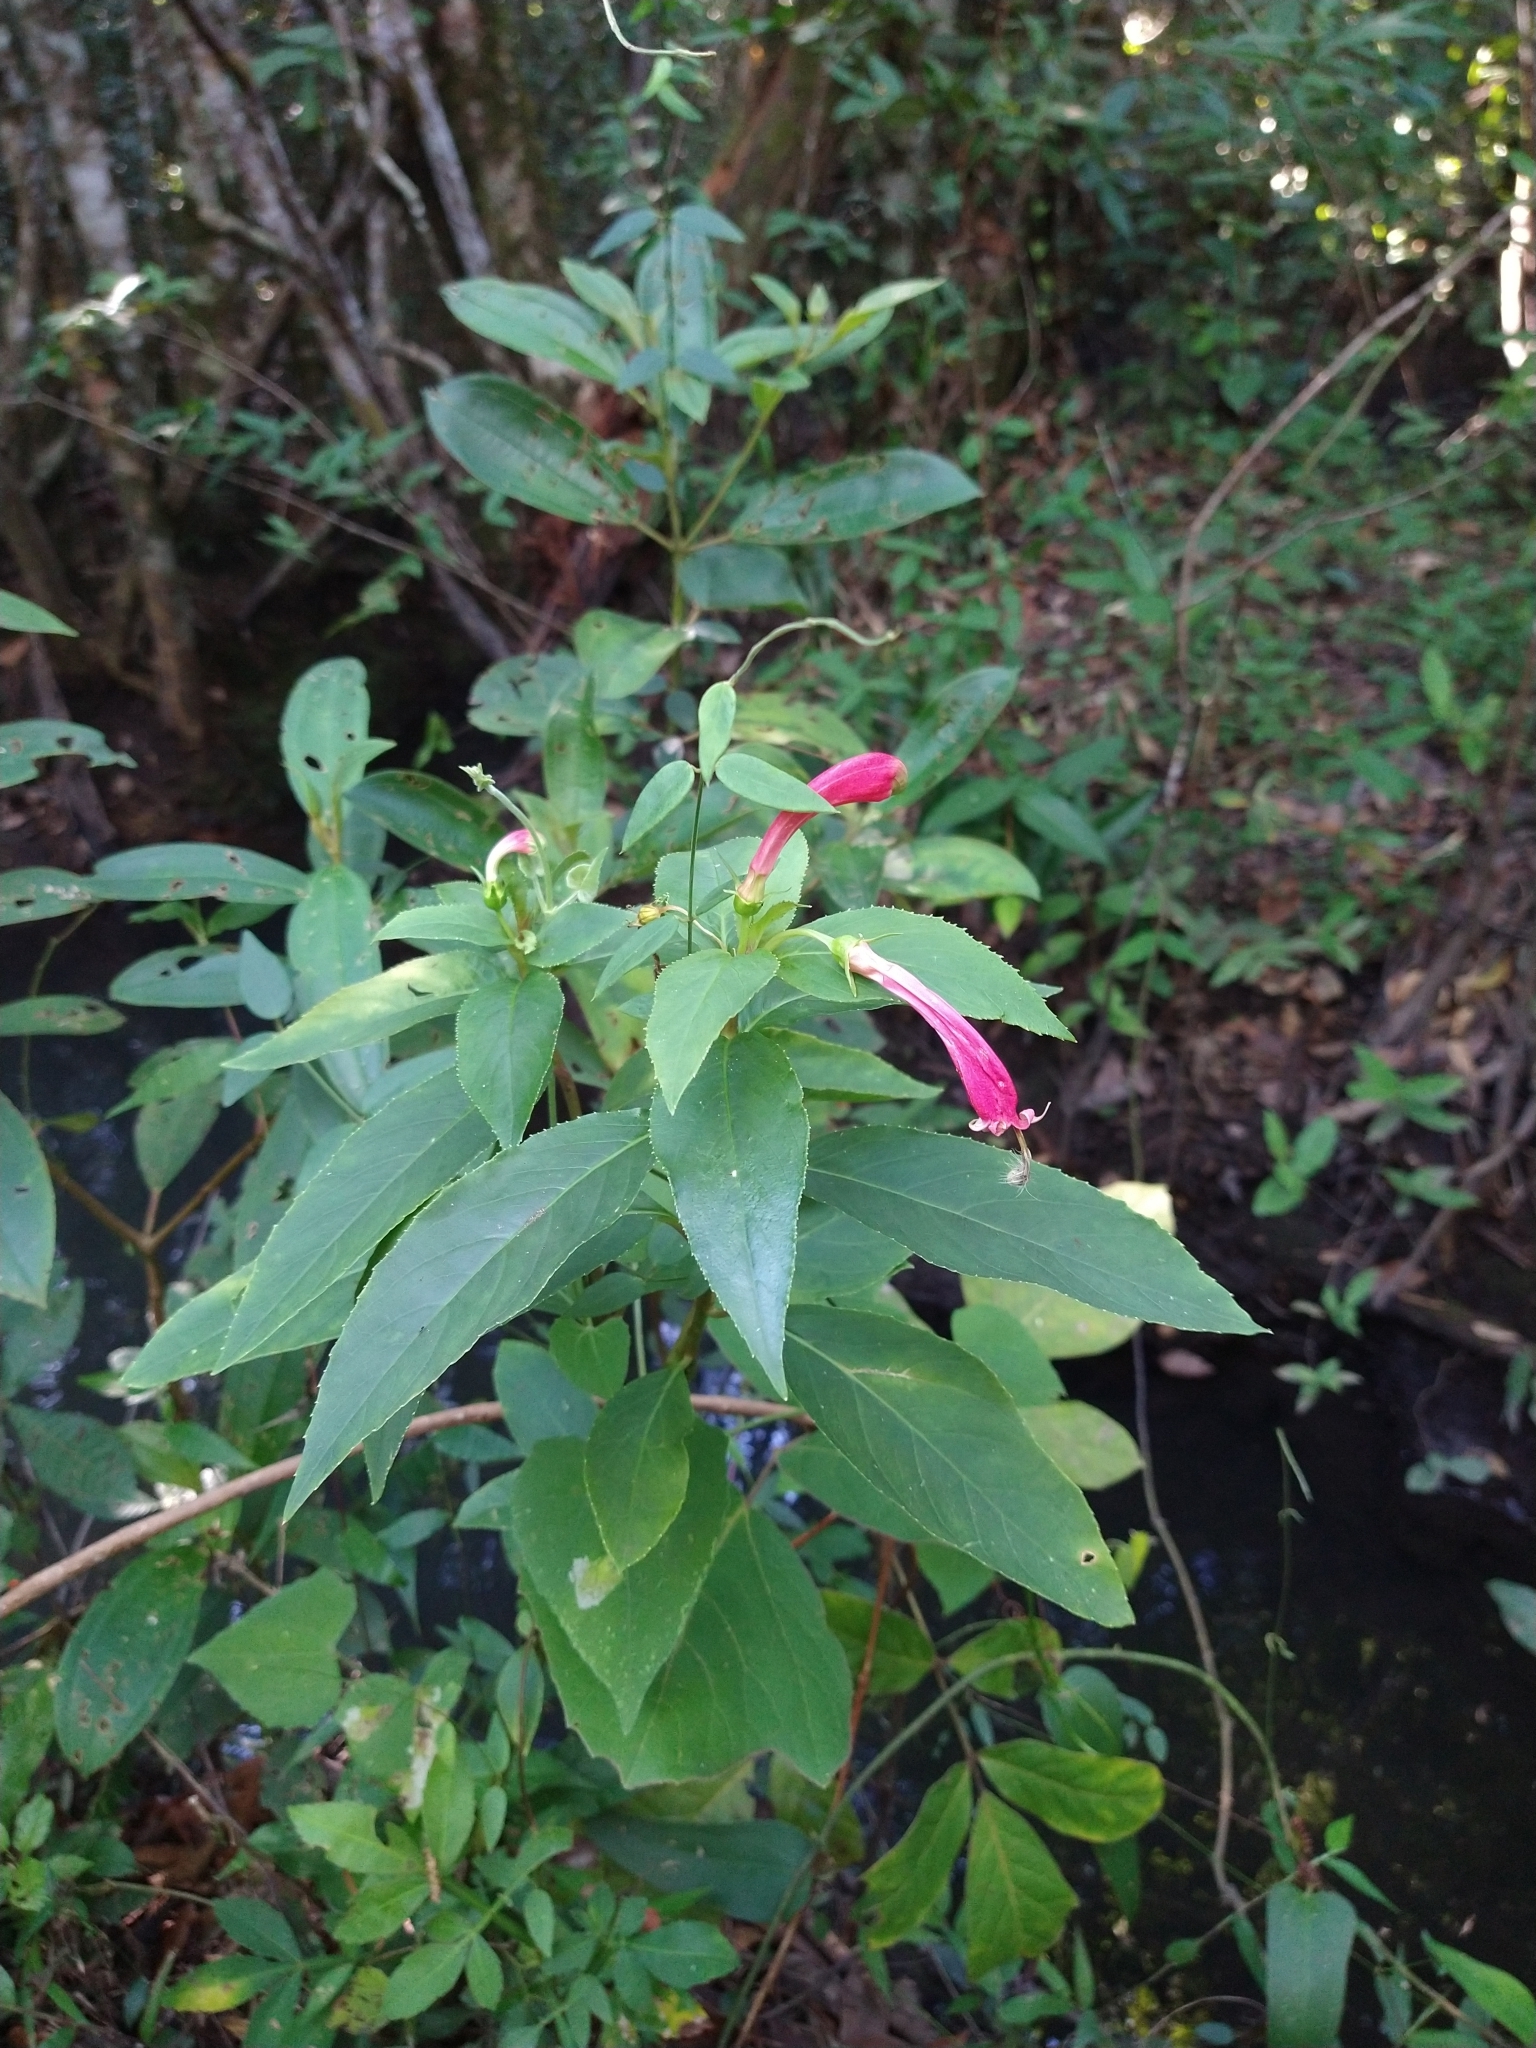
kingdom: Plantae
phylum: Tracheophyta
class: Magnoliopsida
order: Asterales
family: Campanulaceae
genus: Centropogon
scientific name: Centropogon cornutus
